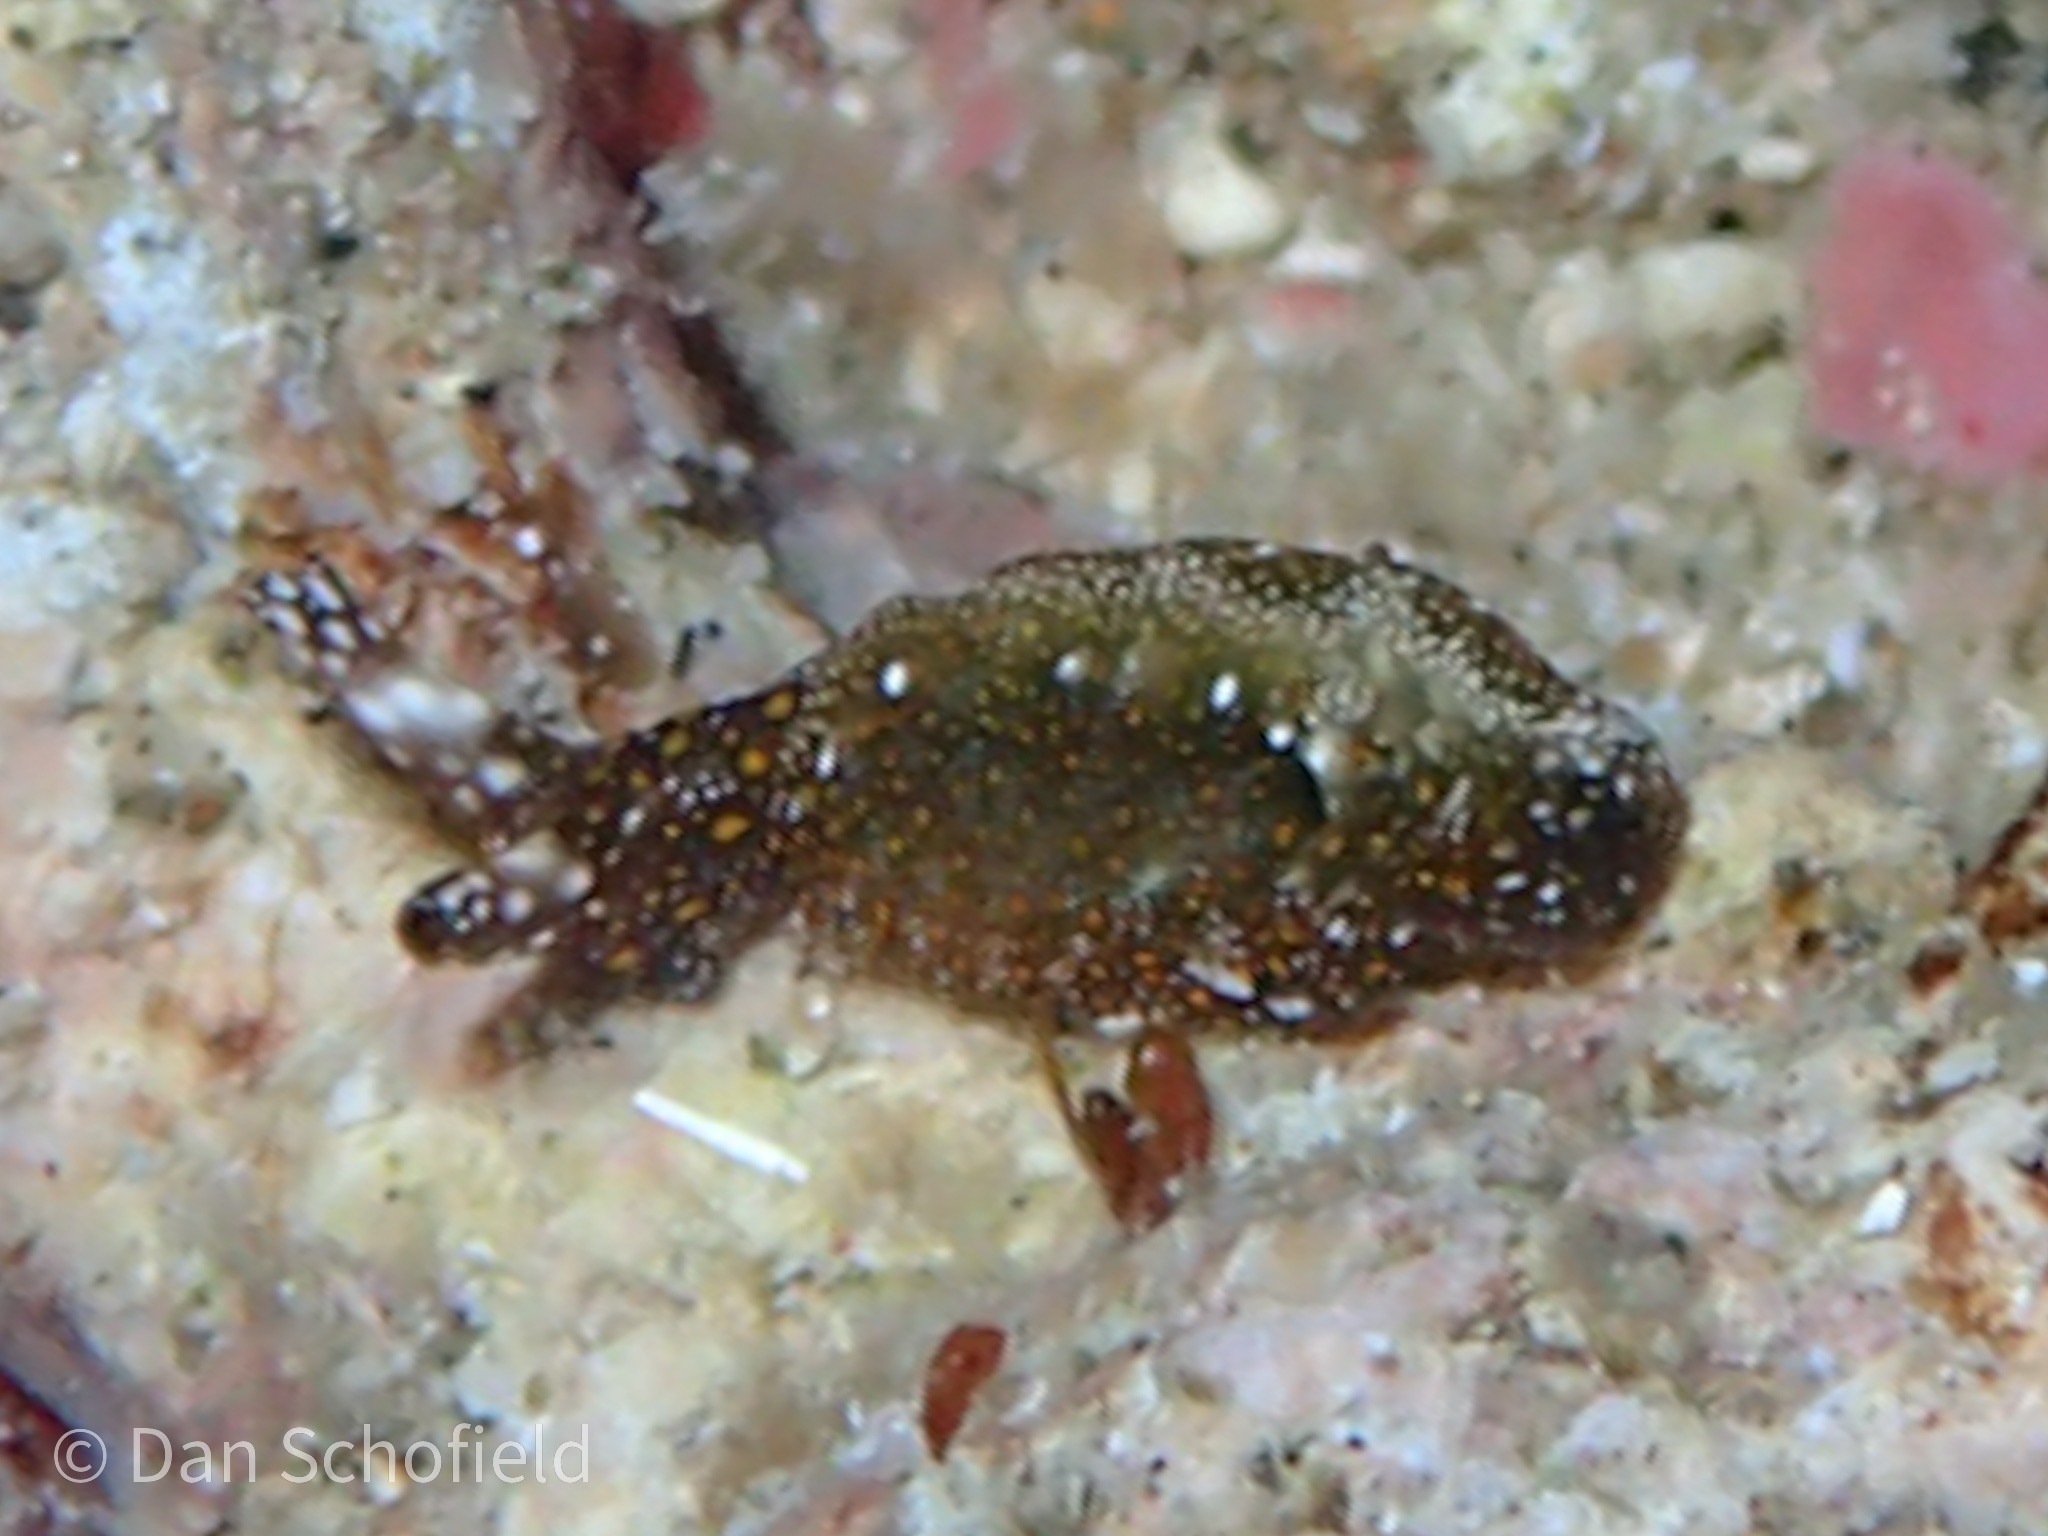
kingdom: Animalia
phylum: Mollusca
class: Gastropoda
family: Plakobranchidae
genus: Thuridilla
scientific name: Thuridilla flavomaculata
